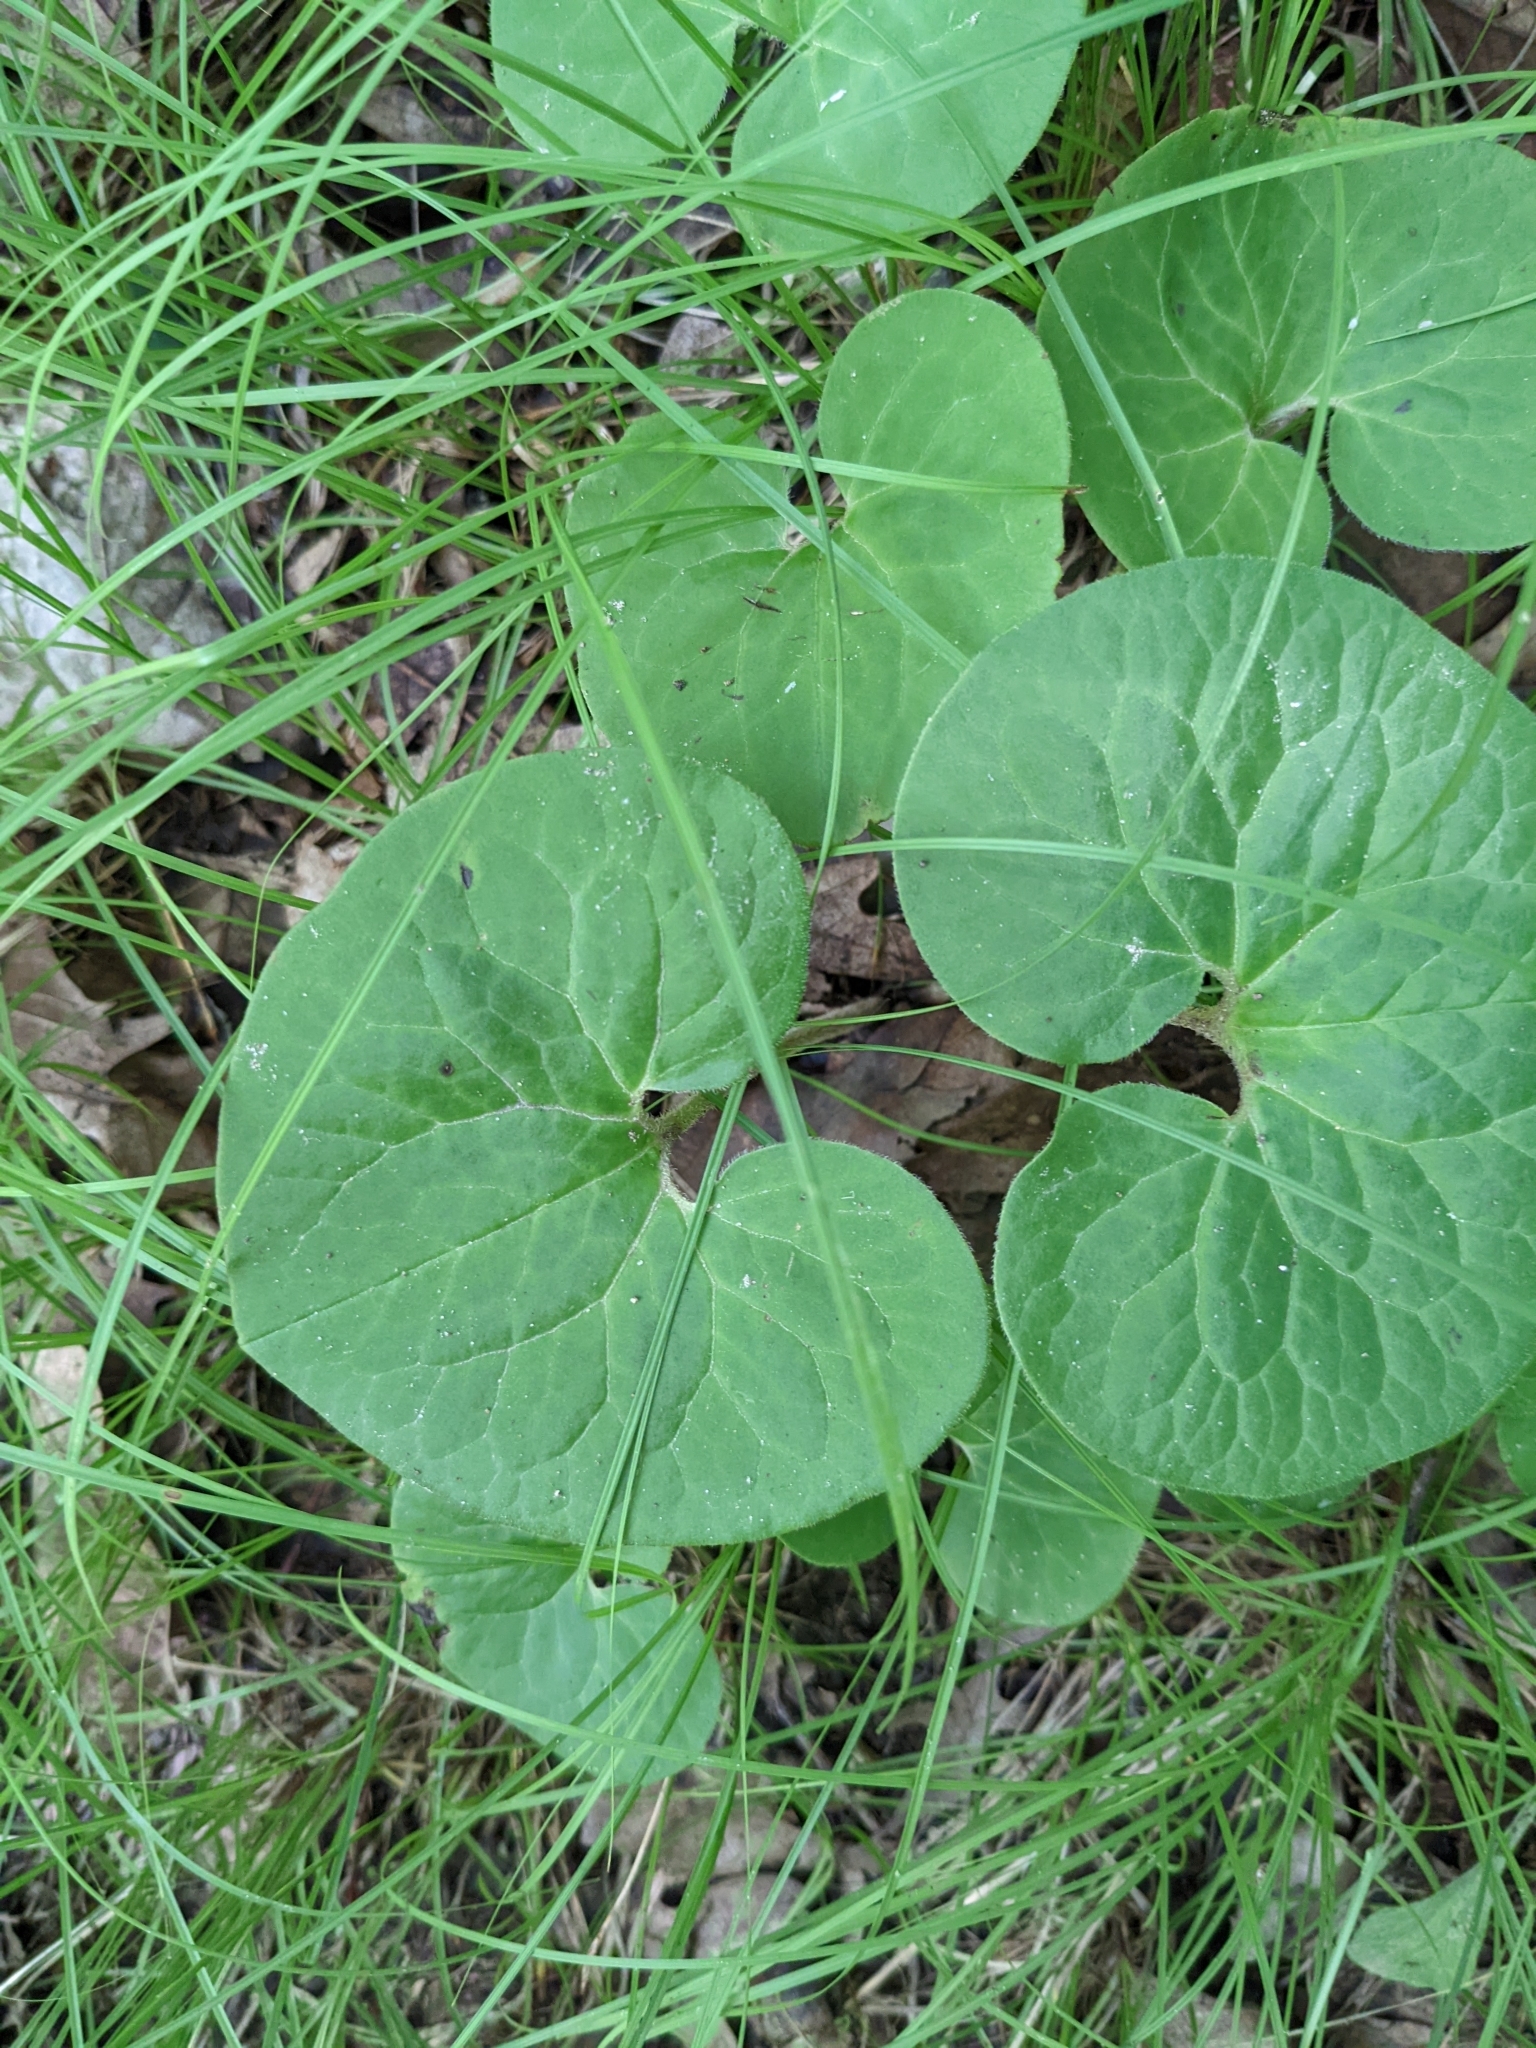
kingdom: Plantae
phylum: Tracheophyta
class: Magnoliopsida
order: Piperales
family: Aristolochiaceae
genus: Asarum
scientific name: Asarum canadense
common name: Wild ginger
